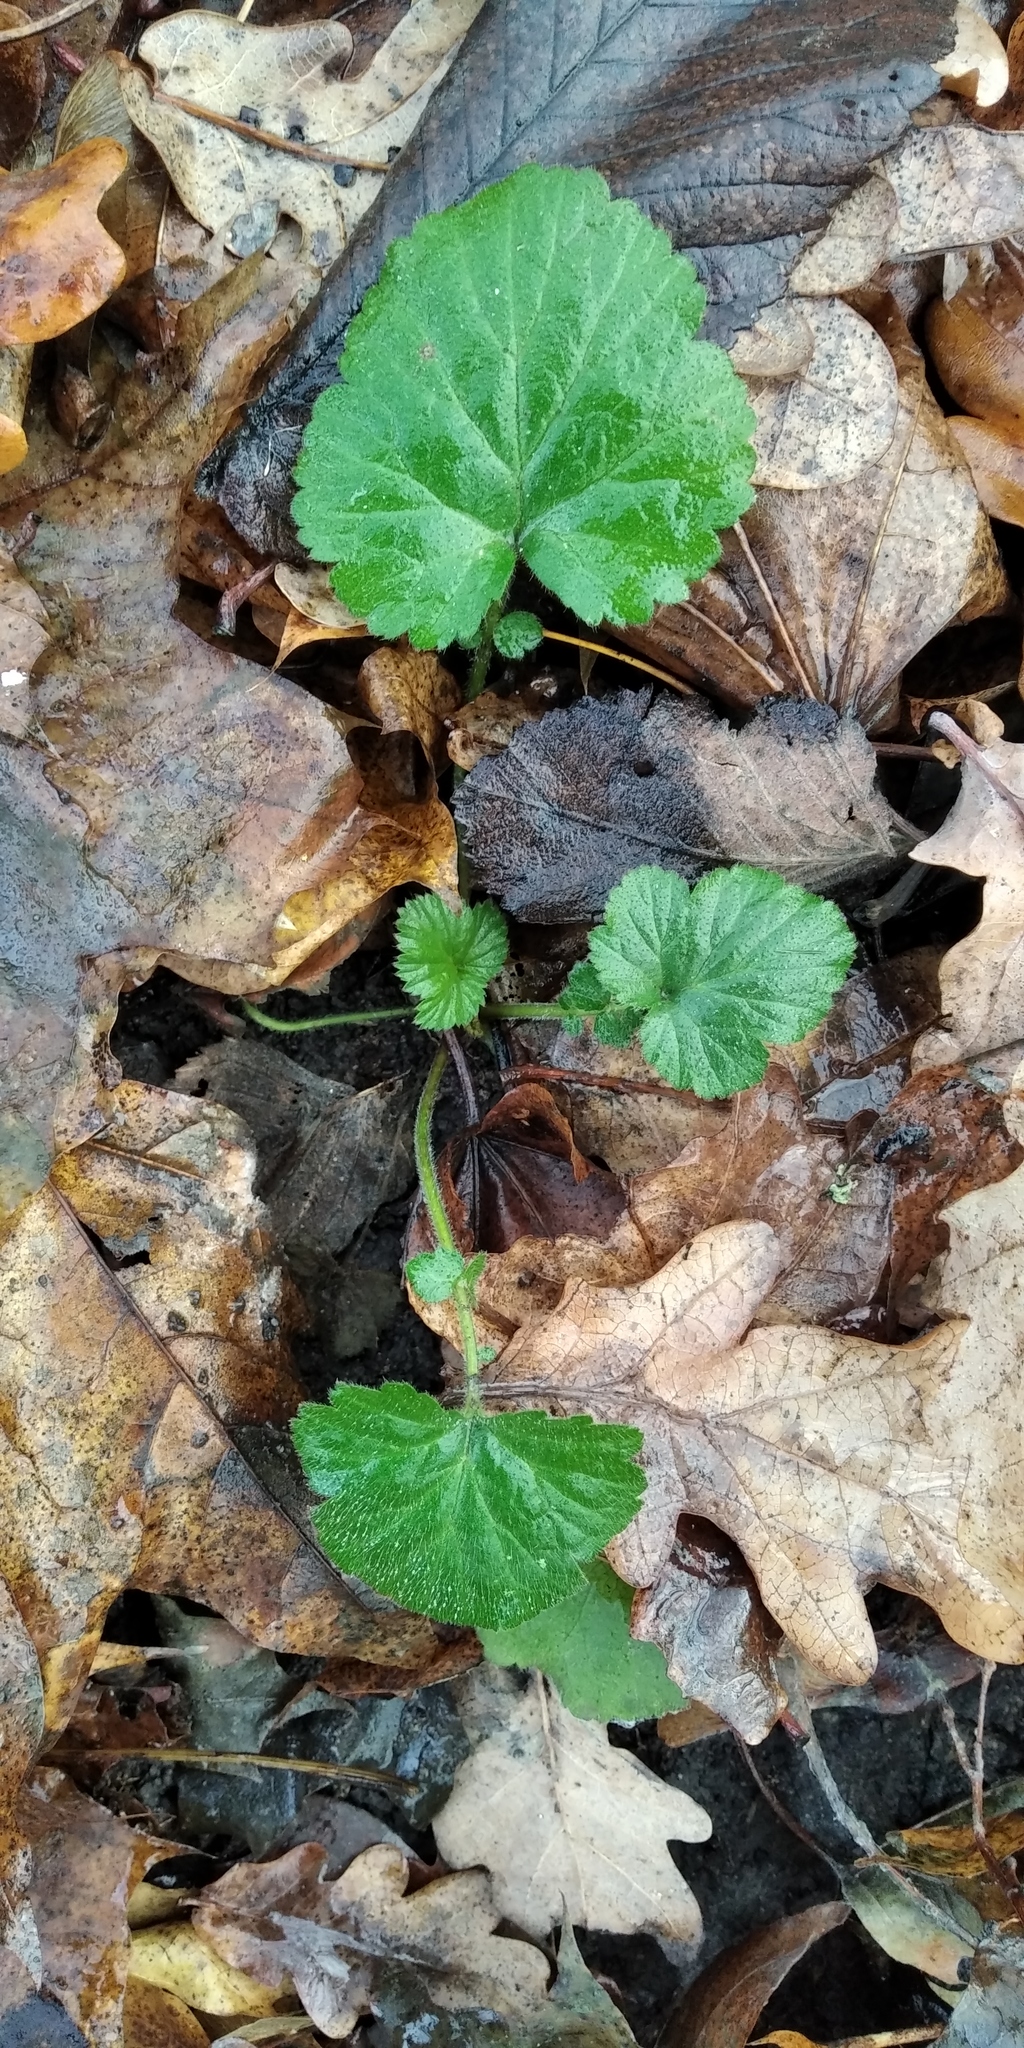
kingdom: Plantae
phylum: Tracheophyta
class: Magnoliopsida
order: Rosales
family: Rosaceae
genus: Geum
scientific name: Geum urbanum
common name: Wood avens
